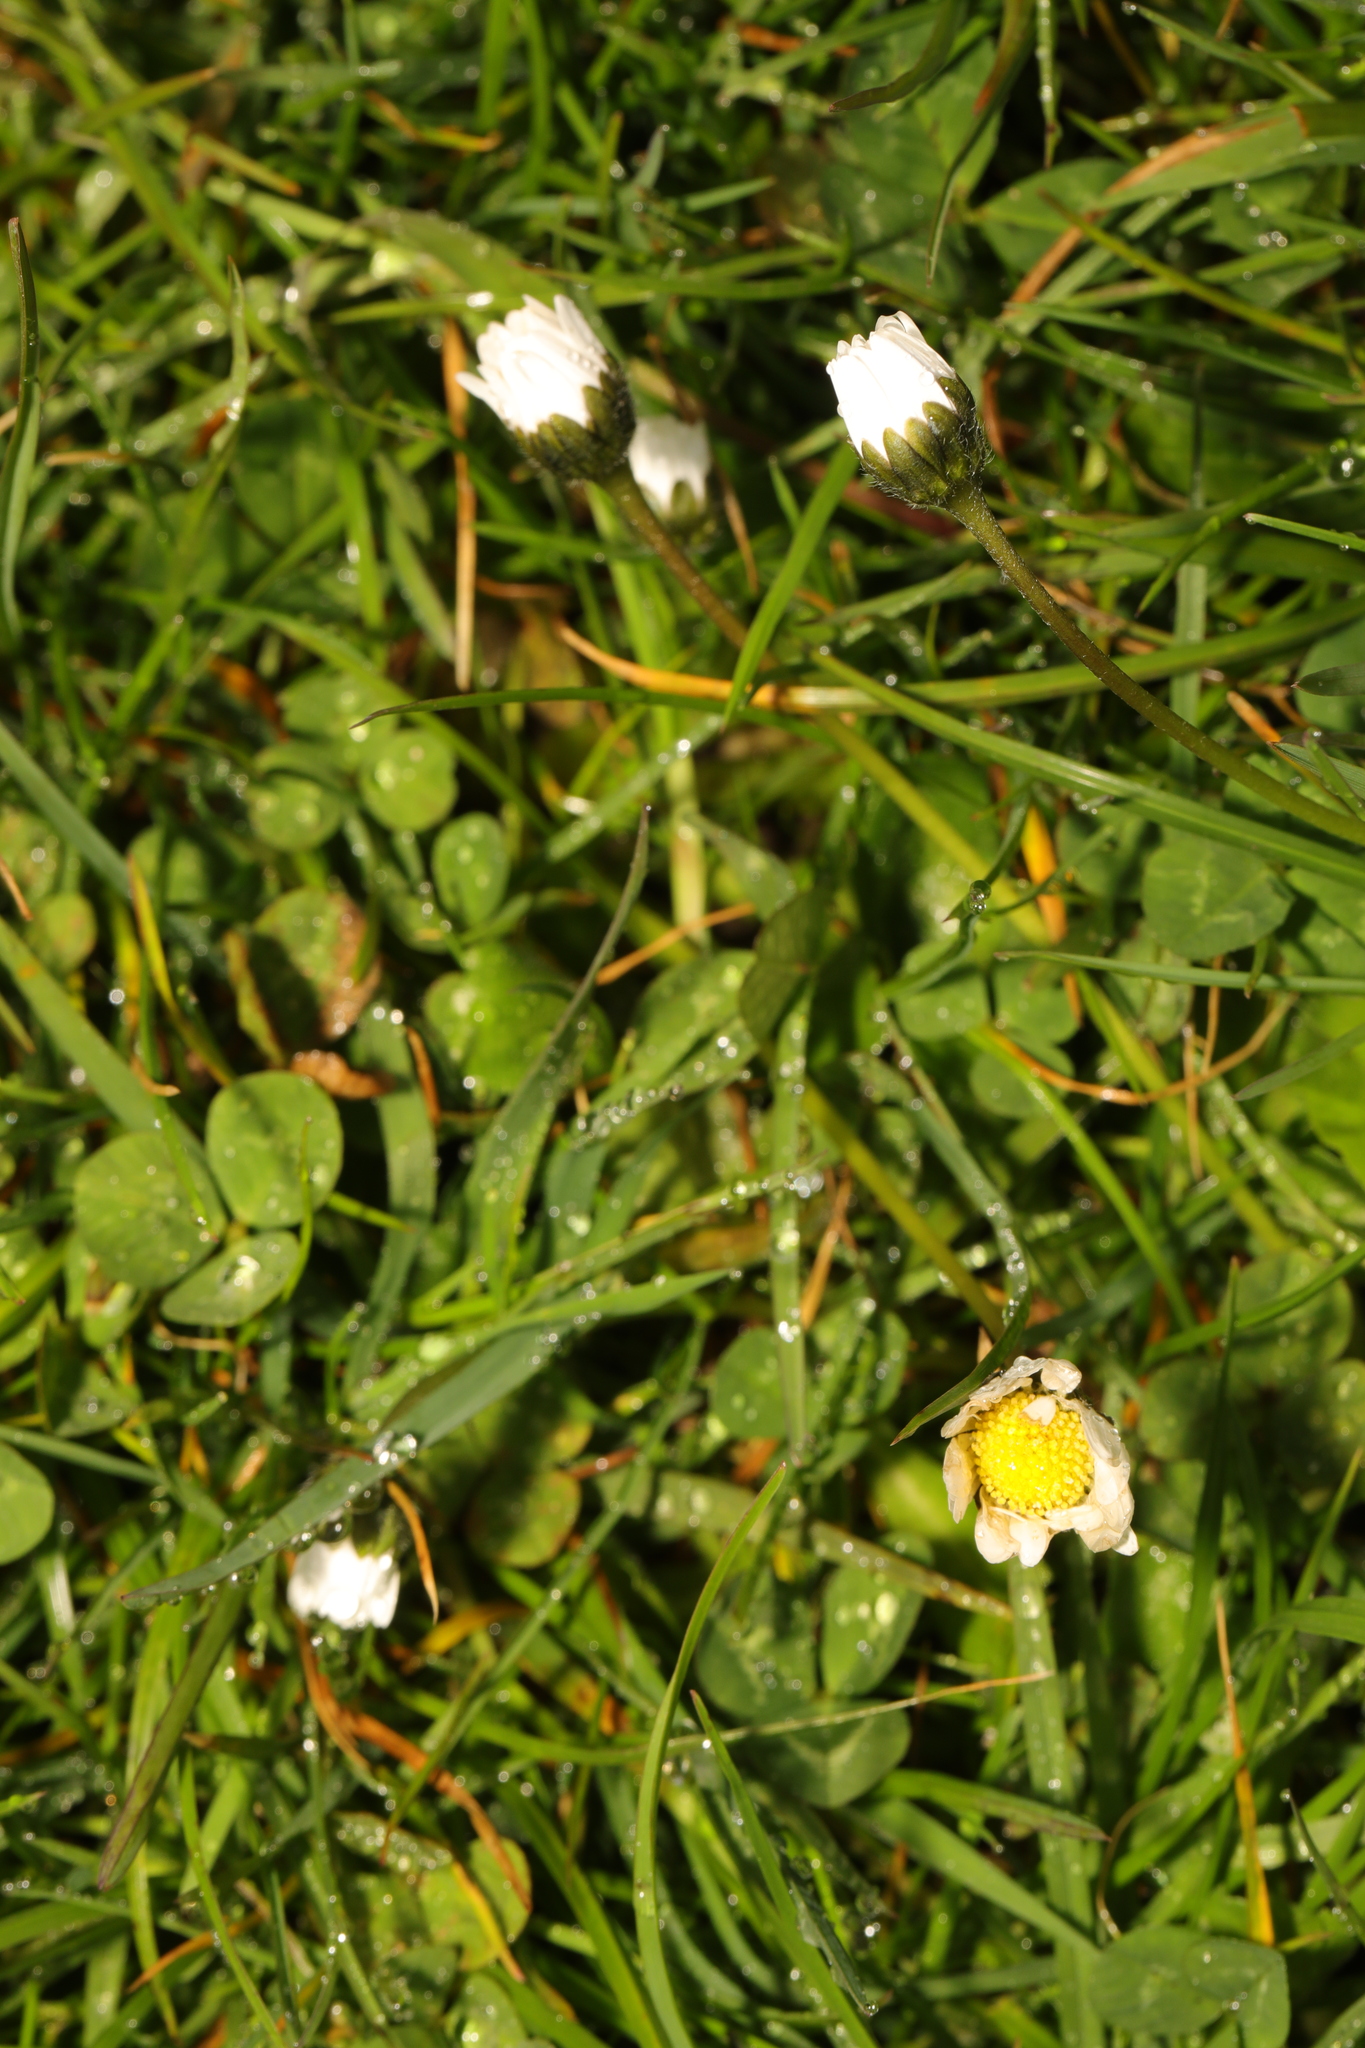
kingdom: Plantae
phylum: Tracheophyta
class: Magnoliopsida
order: Asterales
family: Asteraceae
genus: Bellis
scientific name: Bellis perennis
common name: Lawndaisy
